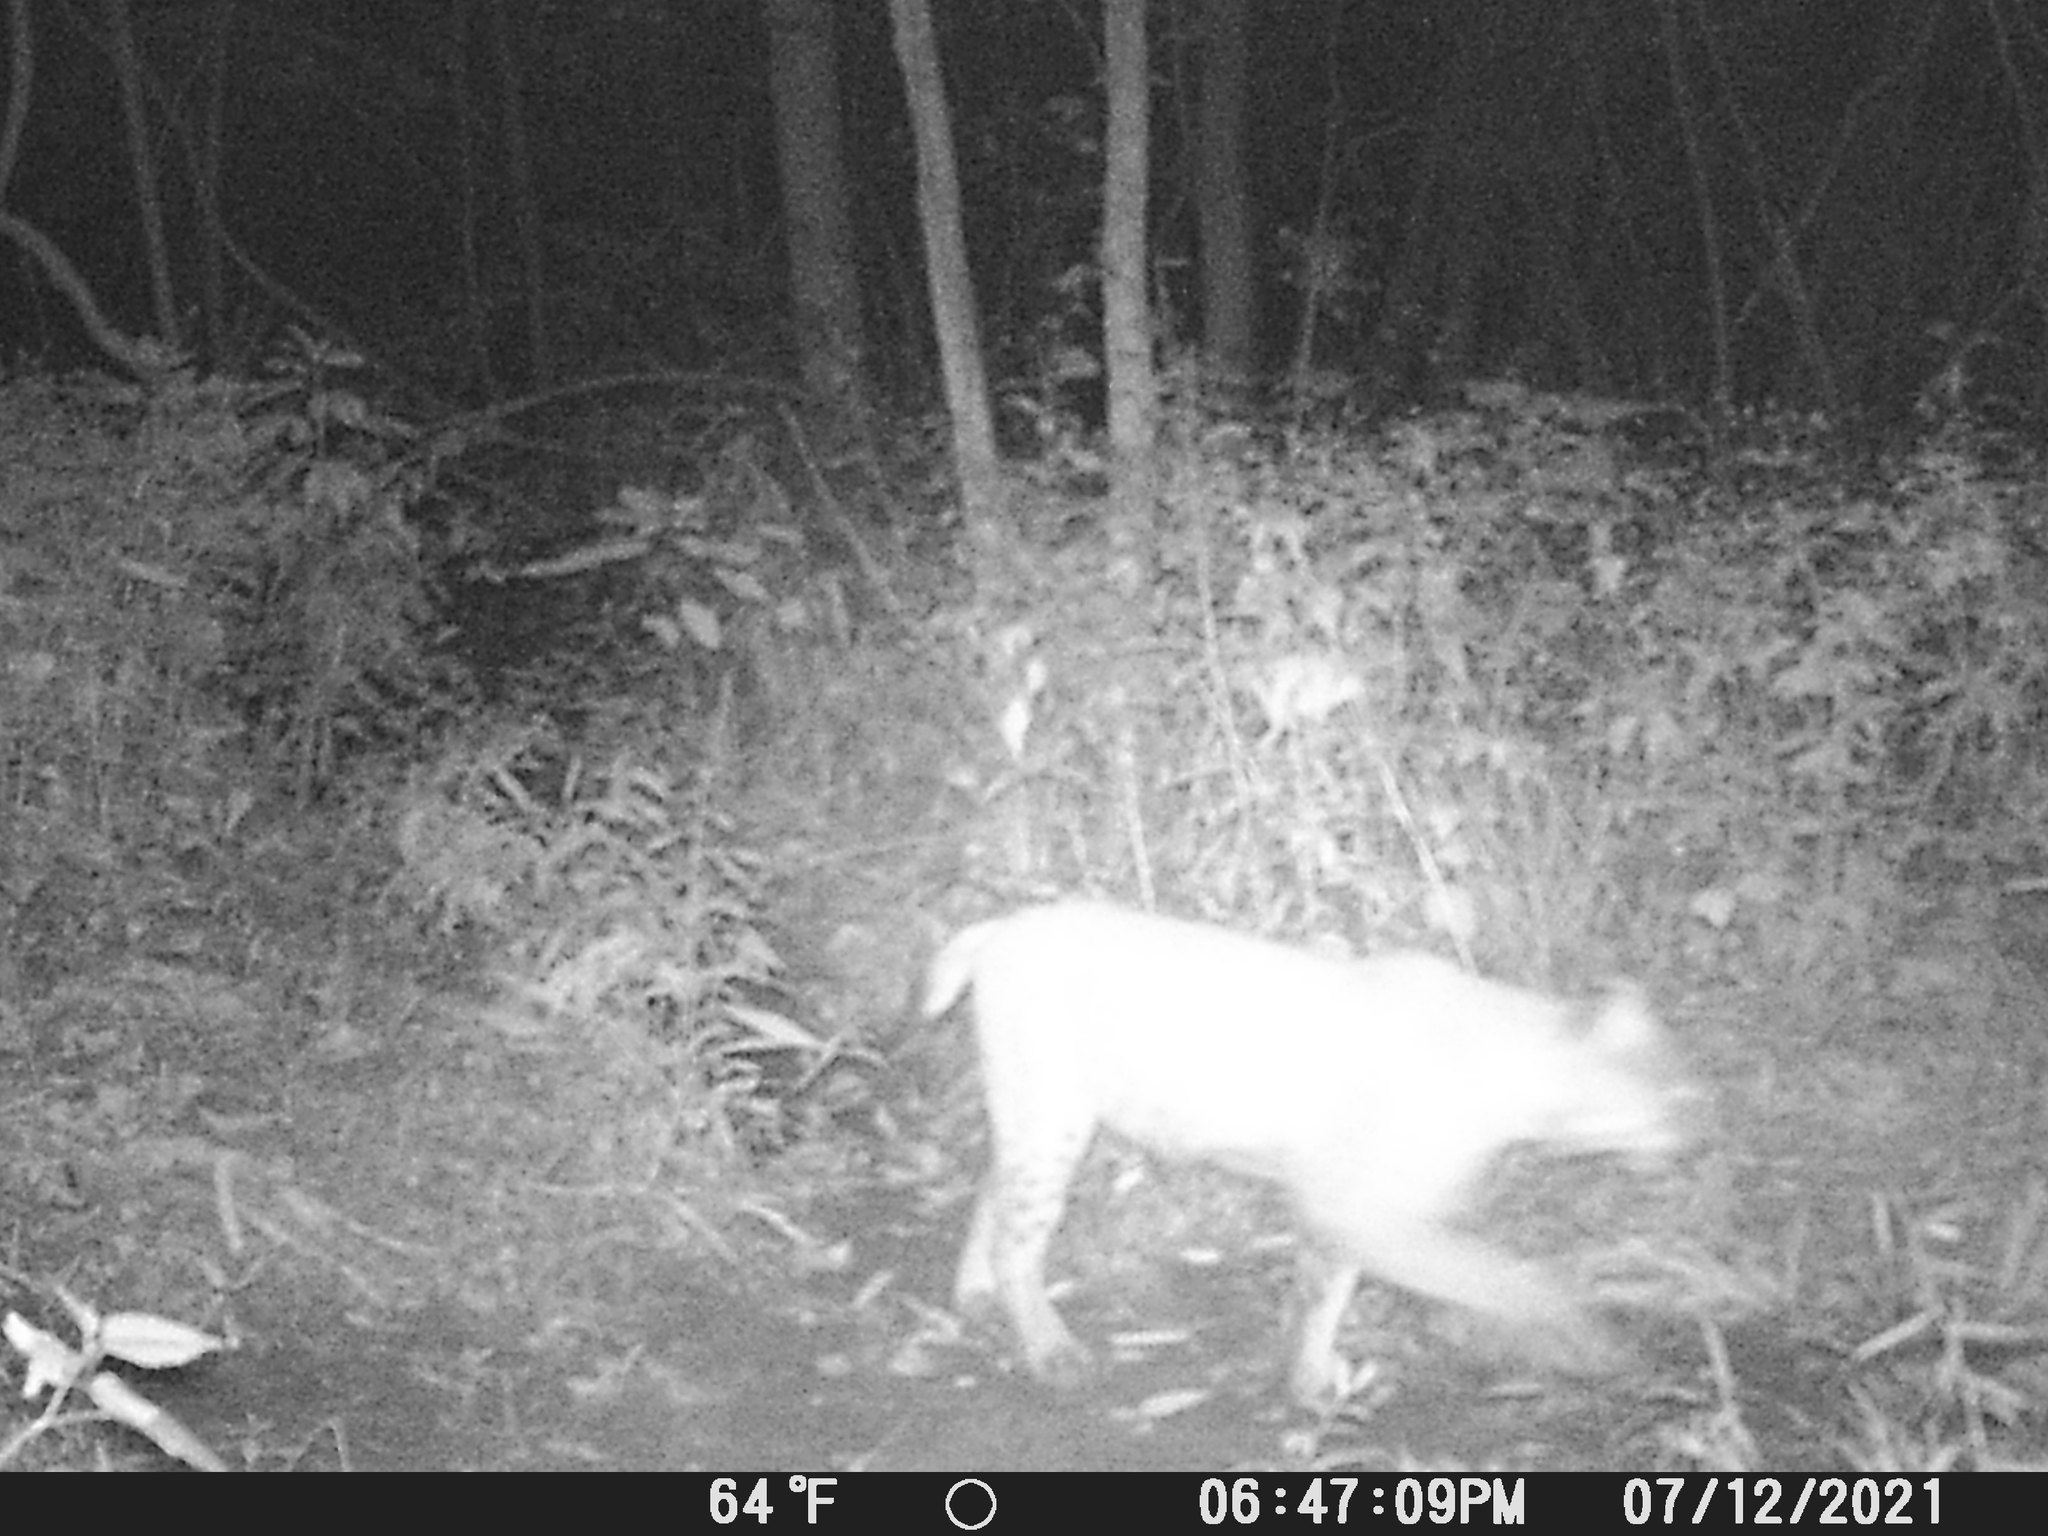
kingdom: Animalia
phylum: Chordata
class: Mammalia
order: Carnivora
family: Felidae
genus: Lynx
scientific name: Lynx rufus
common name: Bobcat
